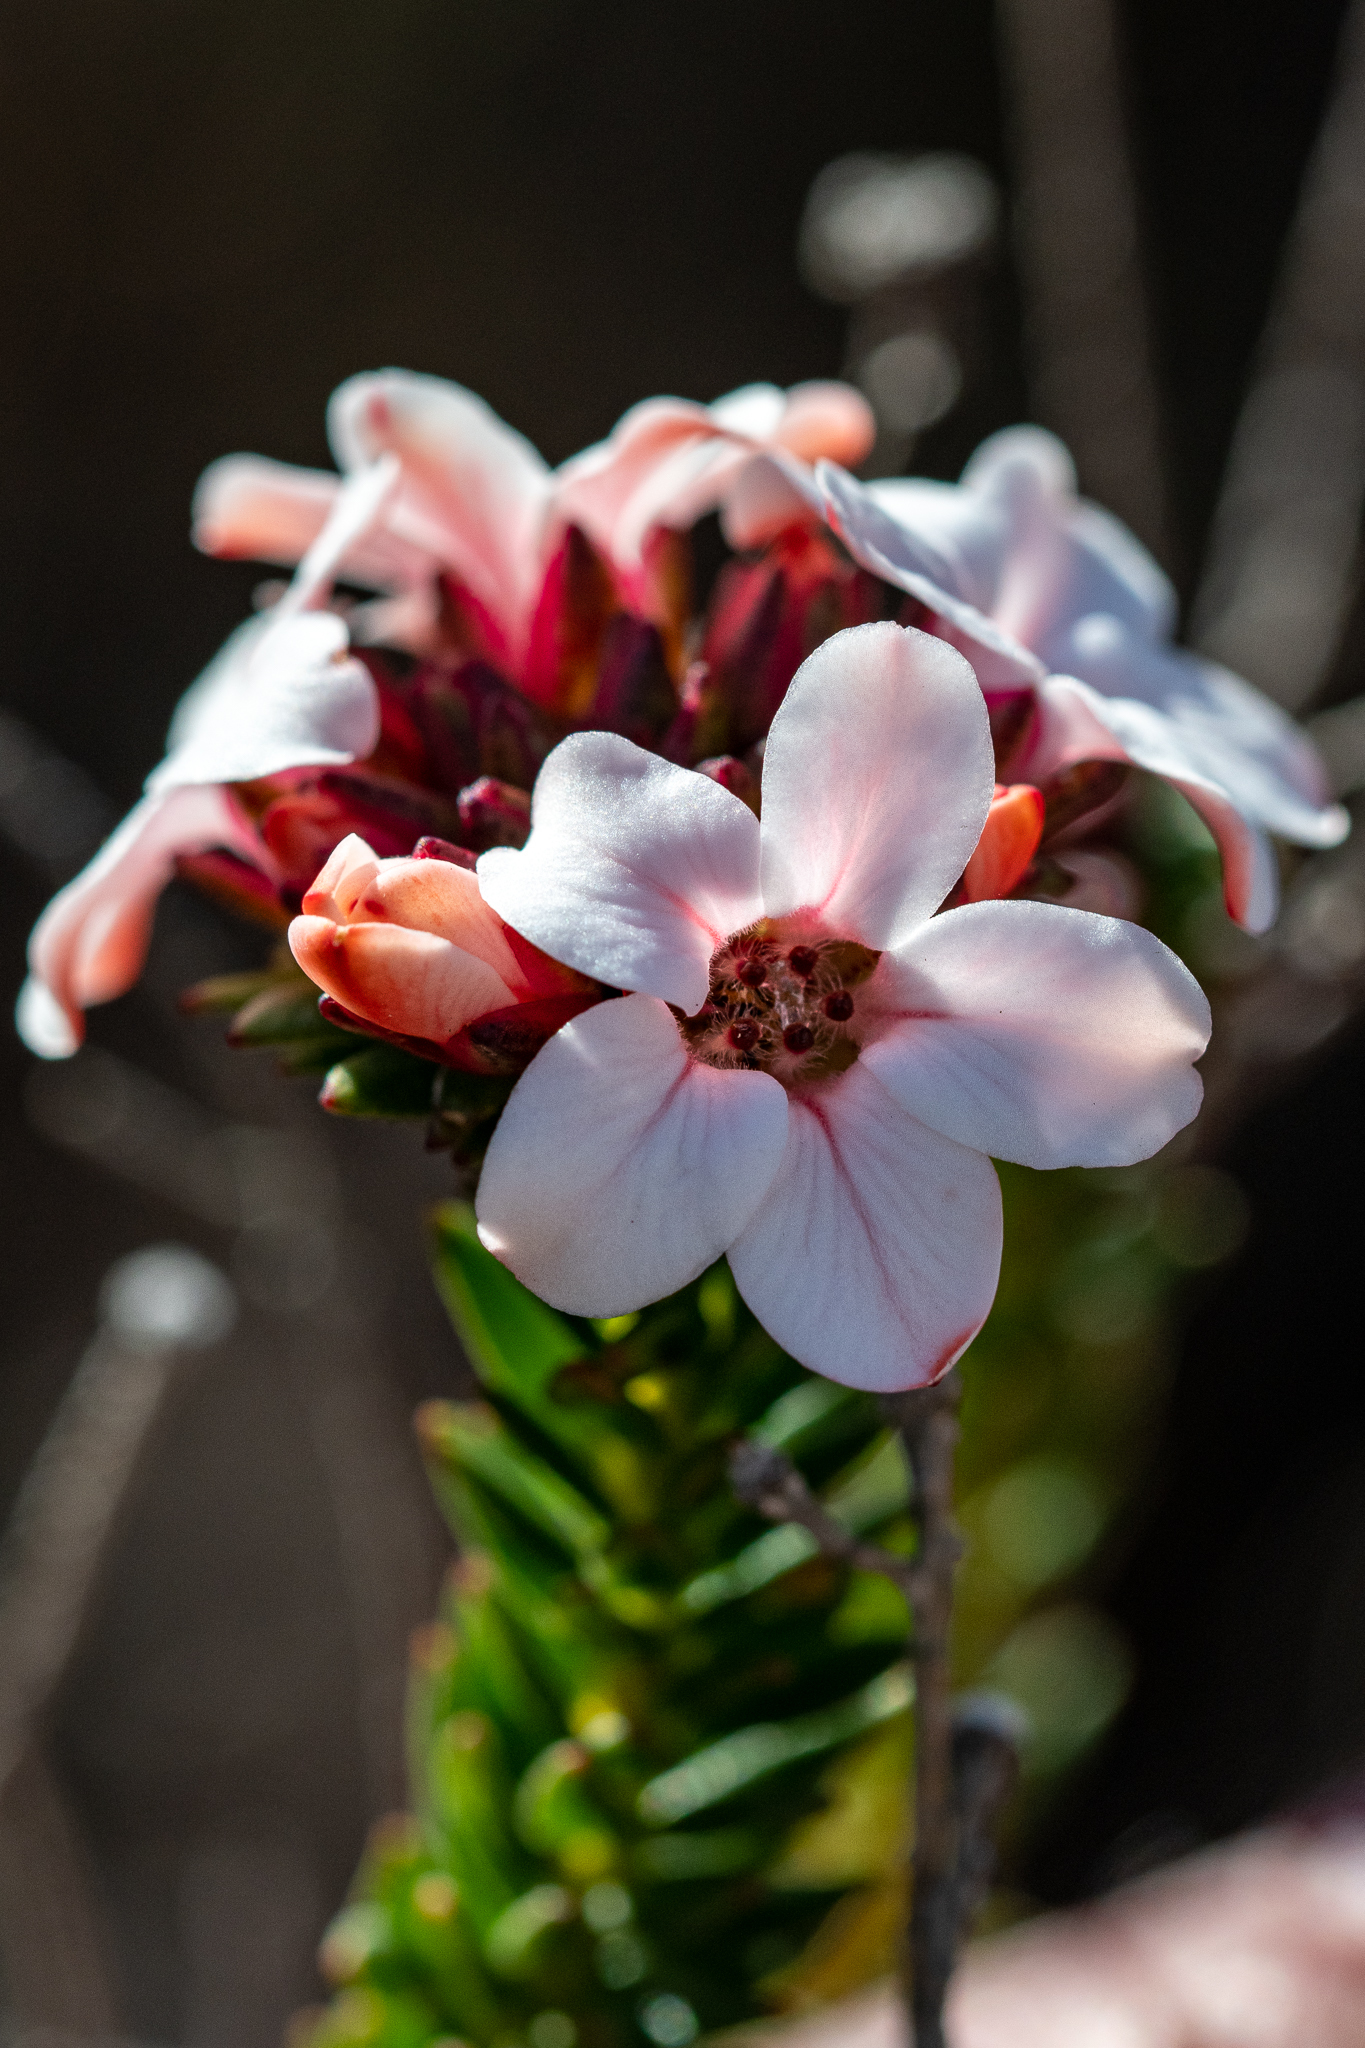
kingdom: Plantae
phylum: Tracheophyta
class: Magnoliopsida
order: Sapindales
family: Rutaceae
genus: Adenandra
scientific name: Adenandra viscida
